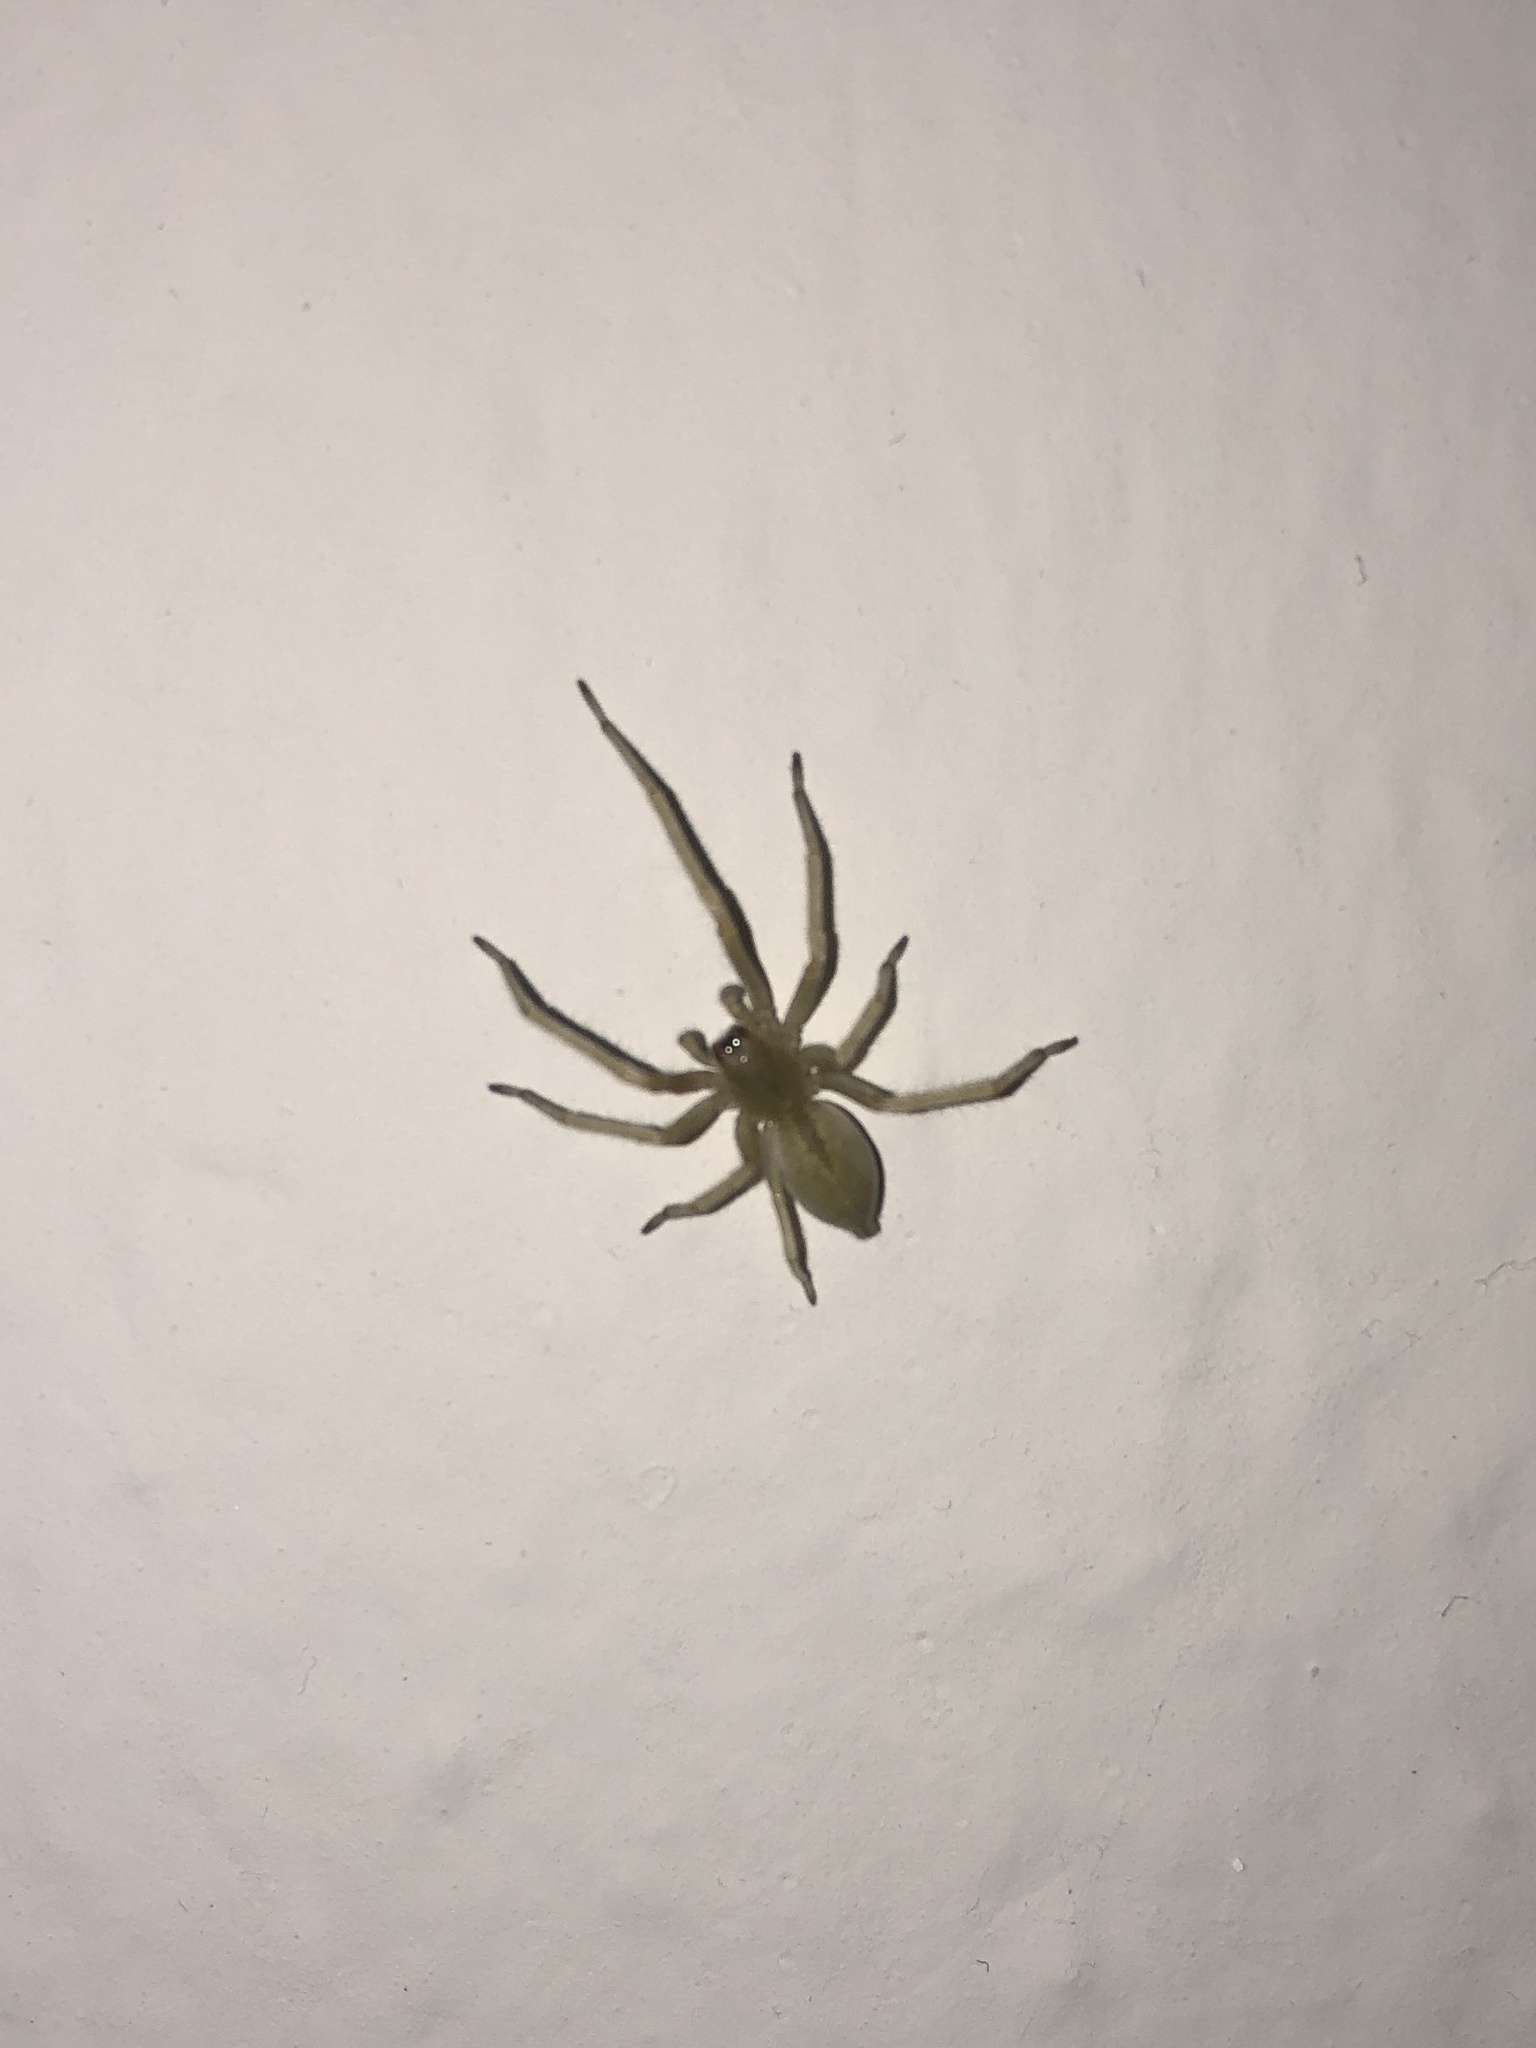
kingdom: Animalia
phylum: Arthropoda
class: Arachnida
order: Araneae
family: Cheiracanthiidae
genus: Cheiracanthium
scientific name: Cheiracanthium mildei
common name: Northern yellow sac spider
